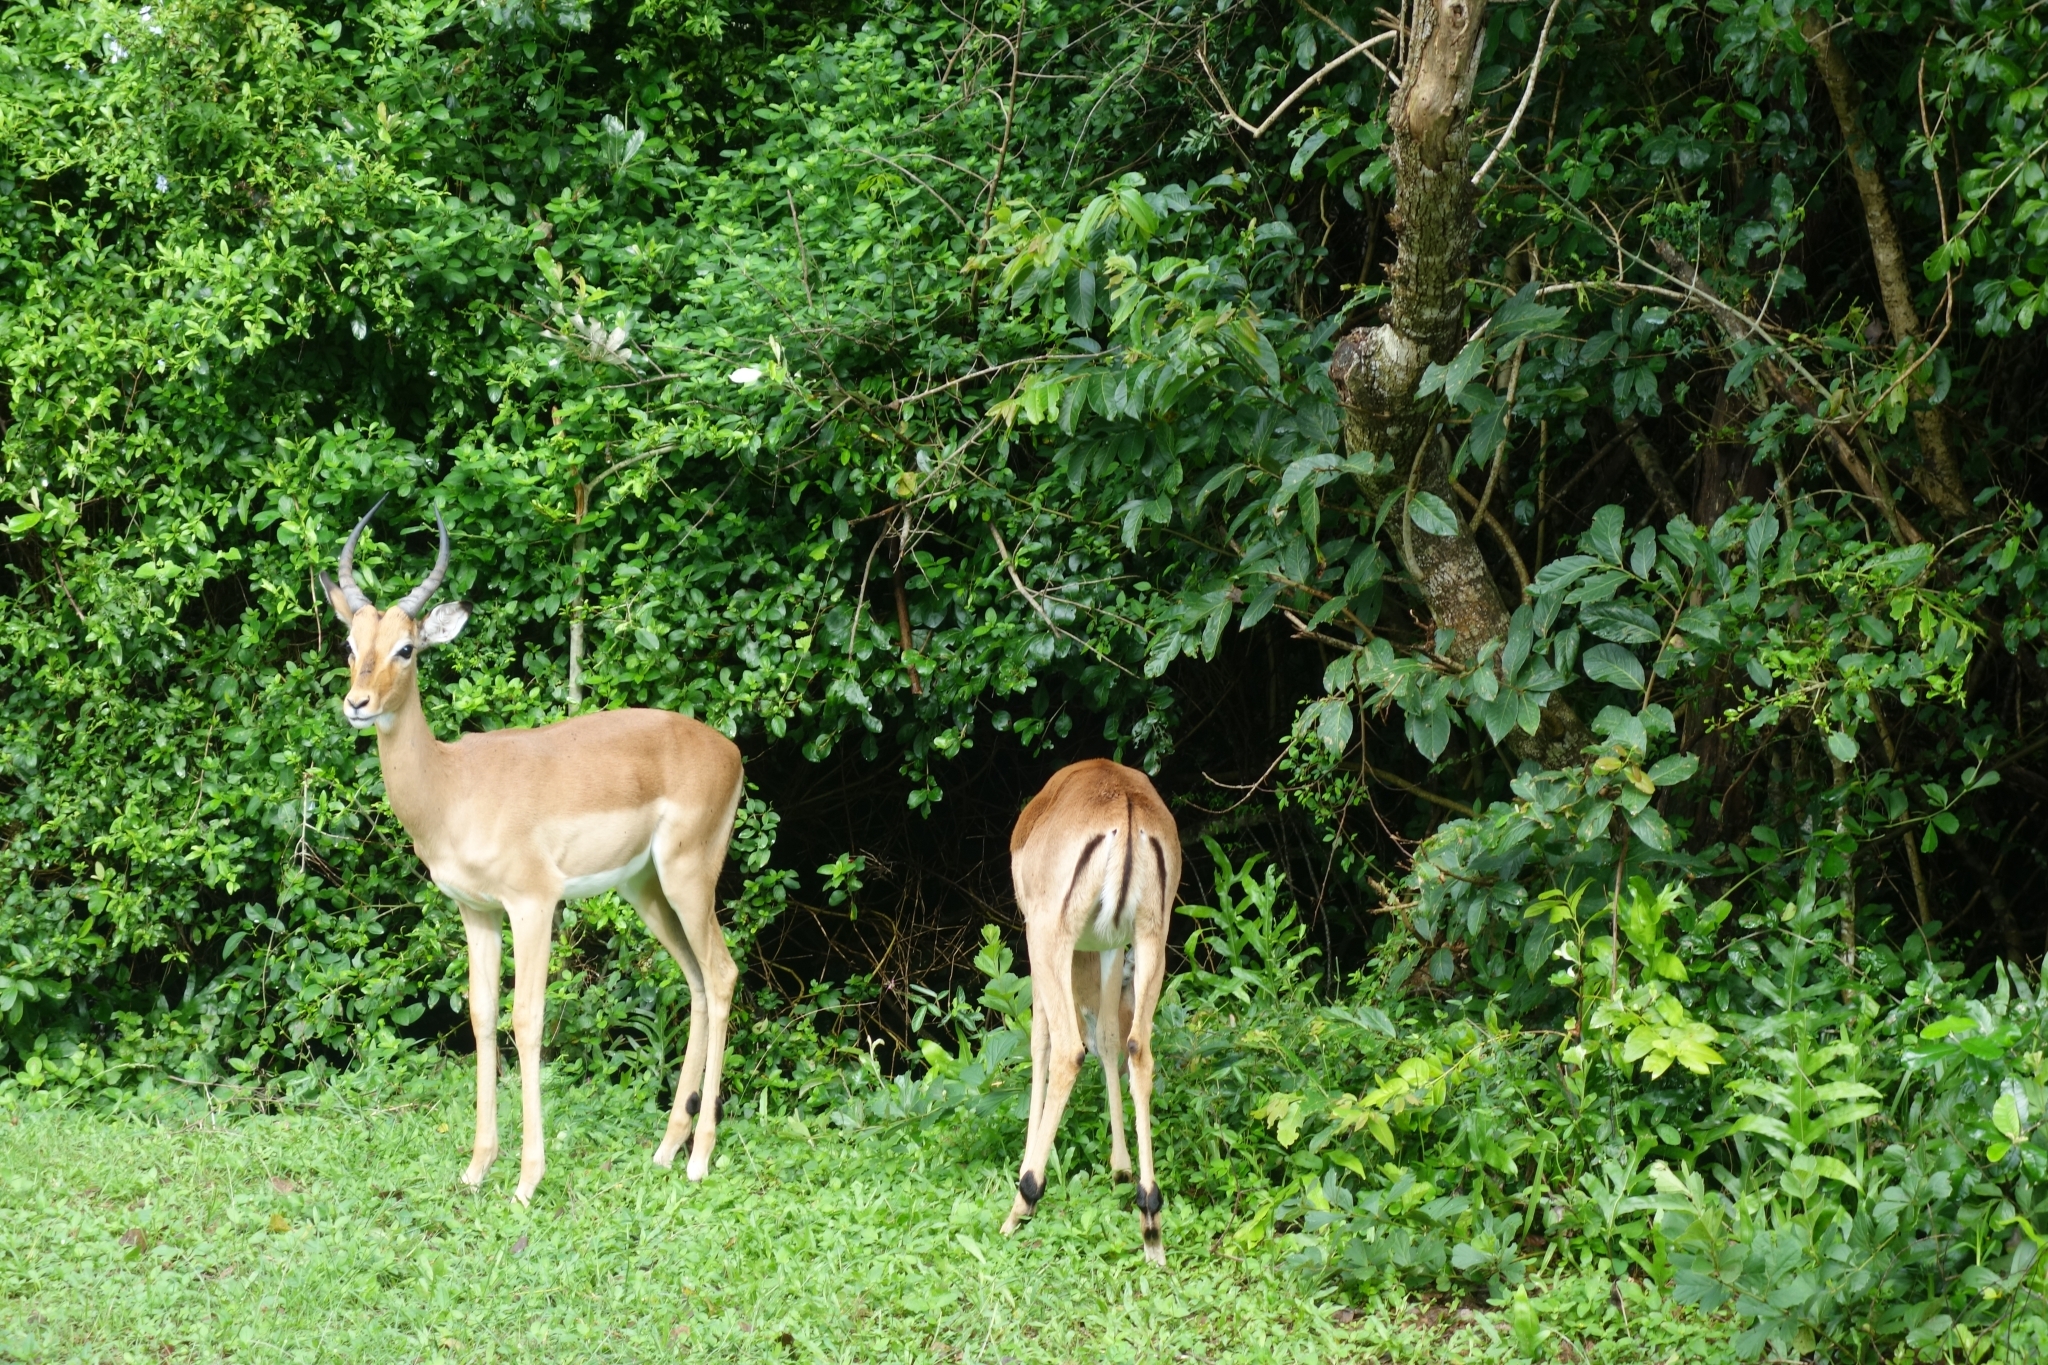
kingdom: Animalia
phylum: Chordata
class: Mammalia
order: Artiodactyla
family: Bovidae
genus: Aepyceros
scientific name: Aepyceros melampus
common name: Impala
